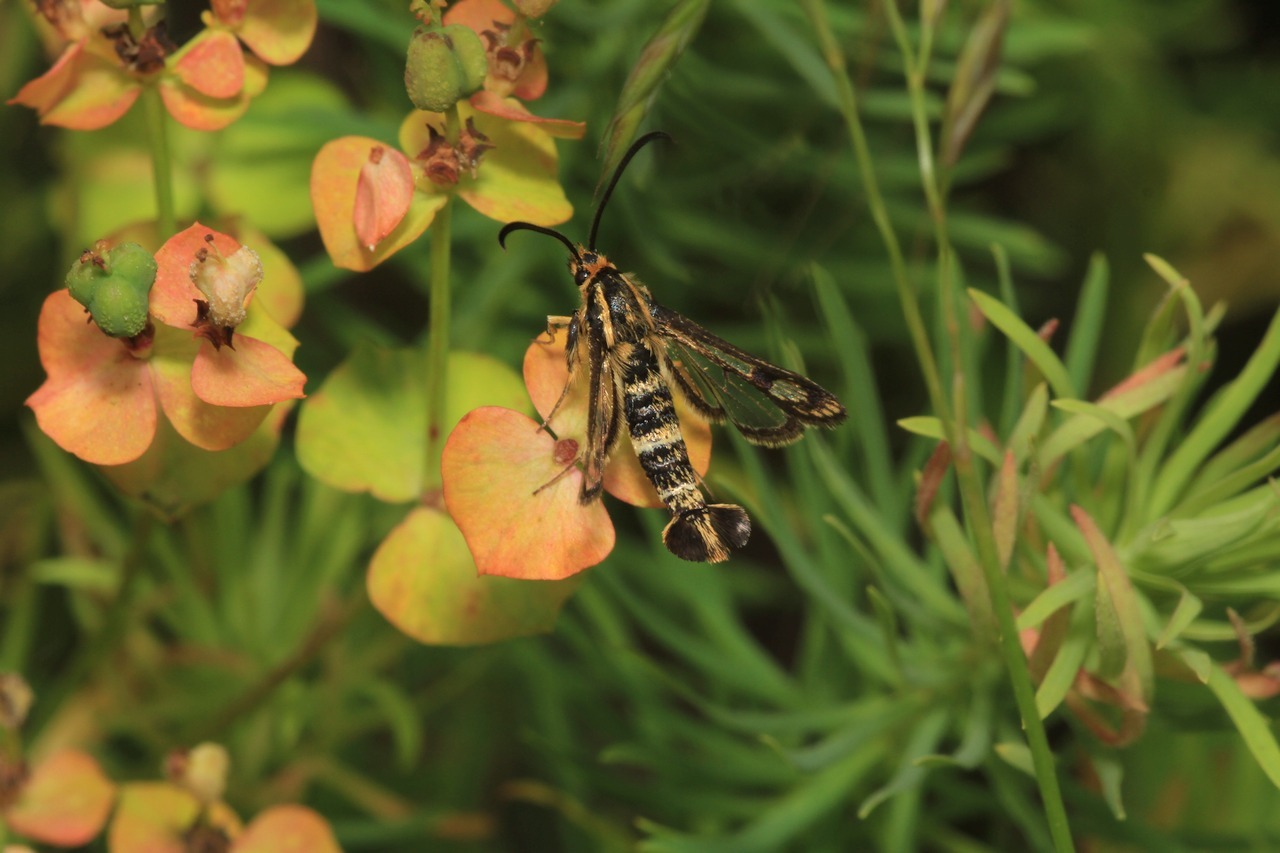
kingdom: Animalia
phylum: Arthropoda
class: Insecta
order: Lepidoptera
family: Sesiidae
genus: Chamaesphecia
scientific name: Chamaesphecia empiformis
